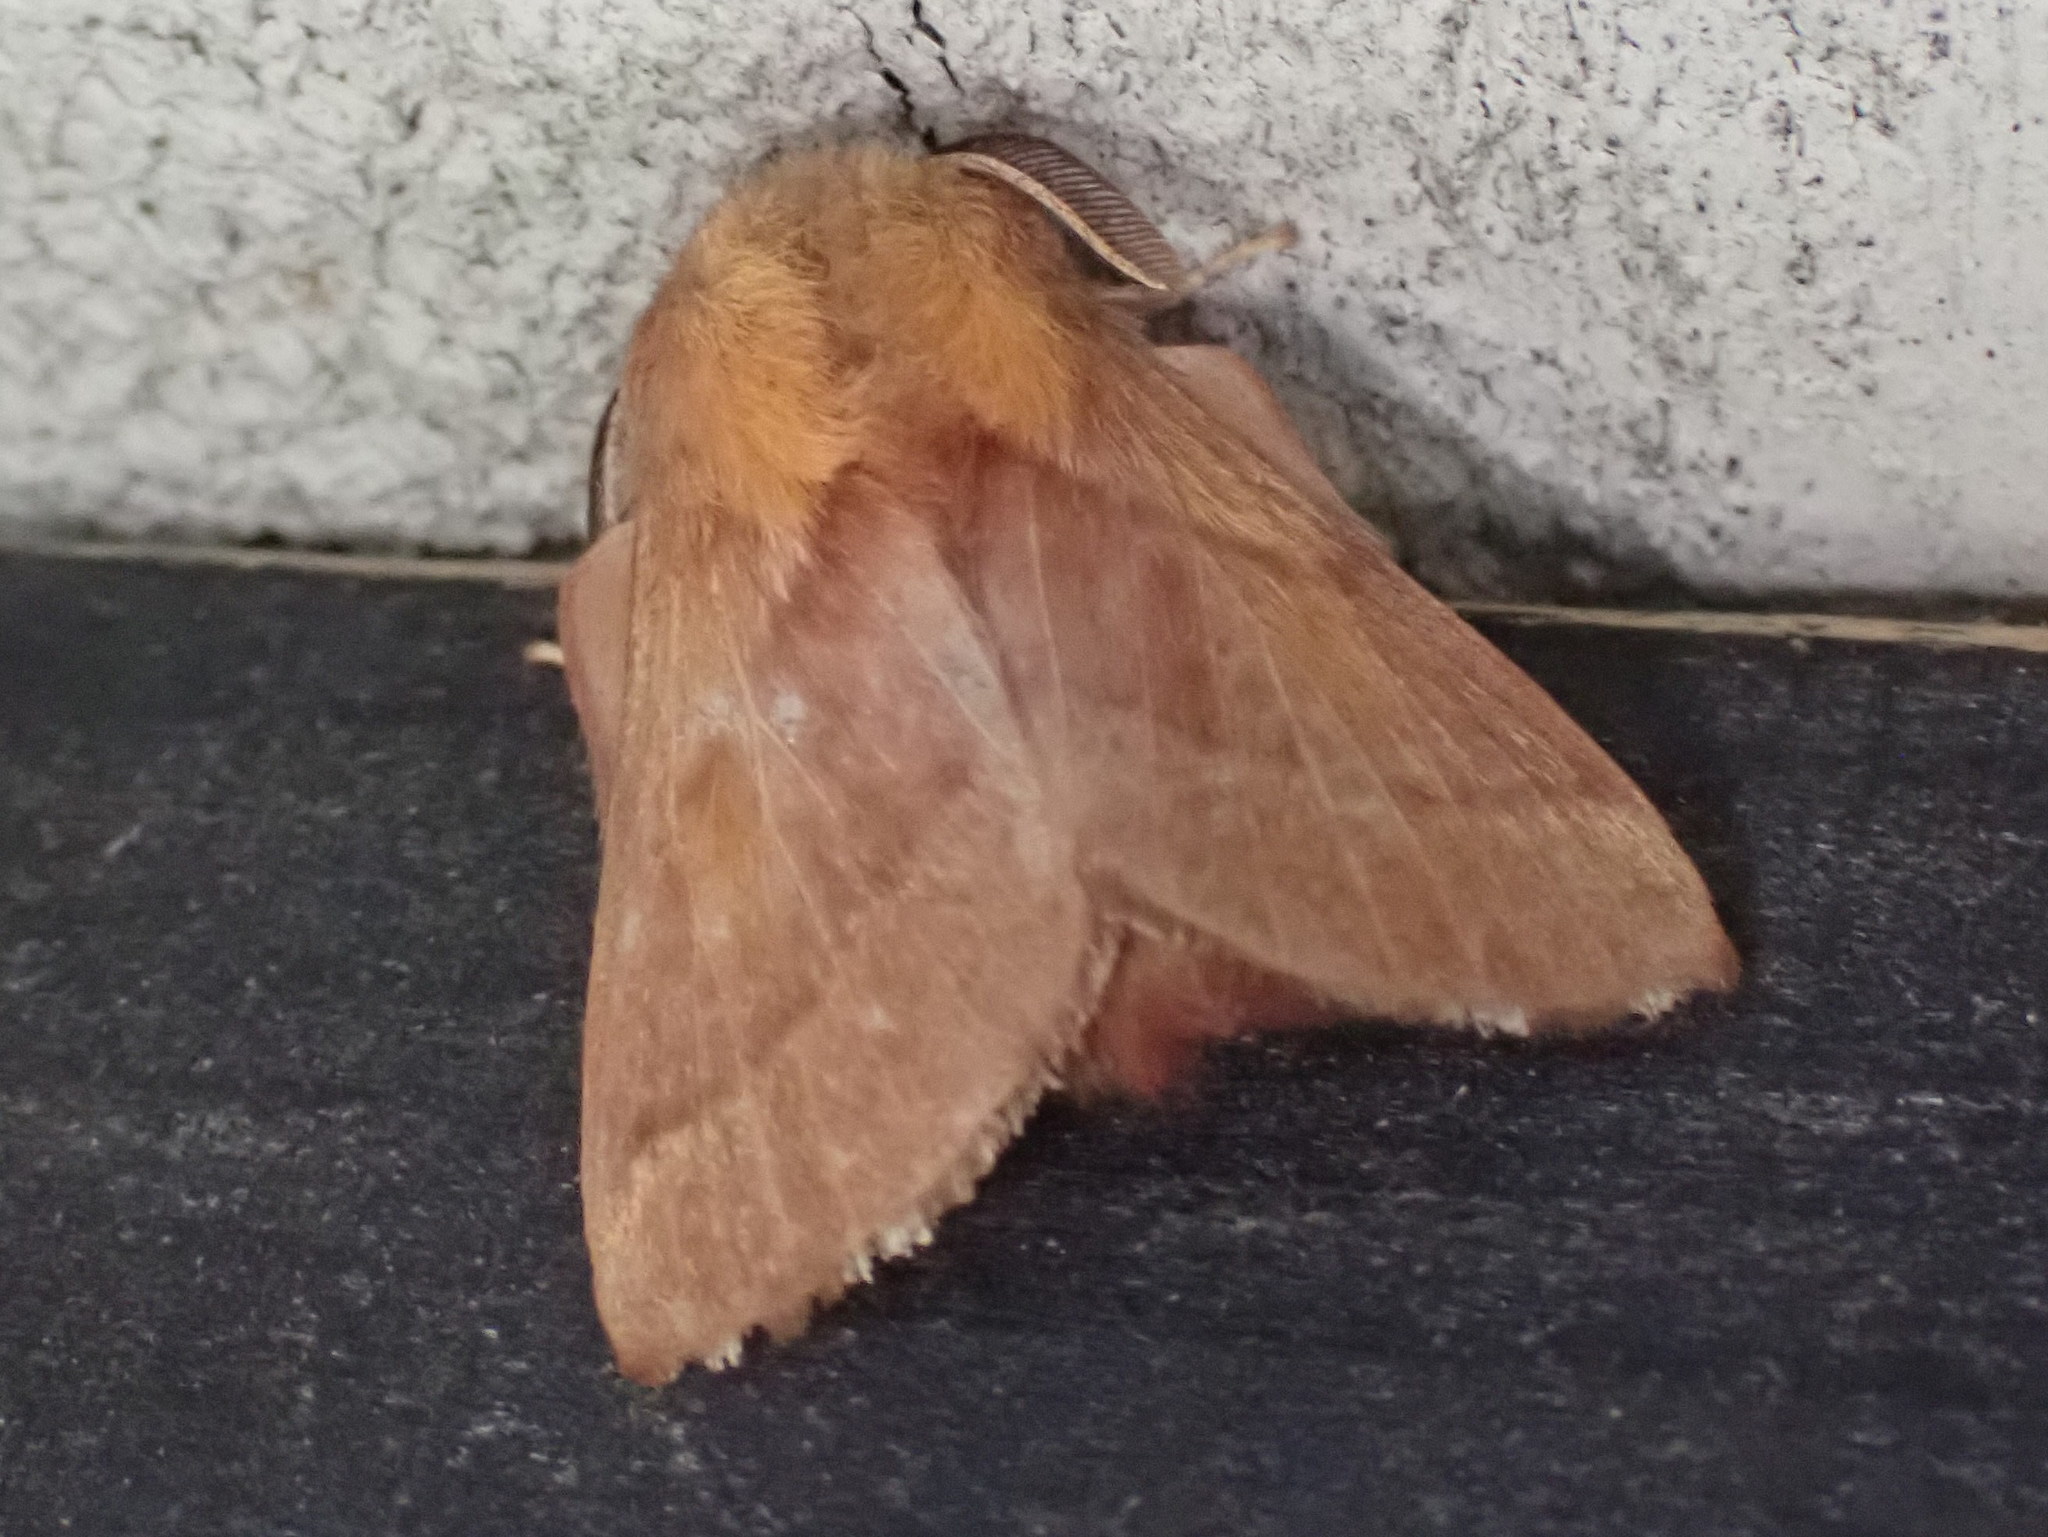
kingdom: Animalia
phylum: Arthropoda
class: Insecta
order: Lepidoptera
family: Lasiocampidae
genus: Malacosoma
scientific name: Malacosoma disstria
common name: Forest tent caterpillar
